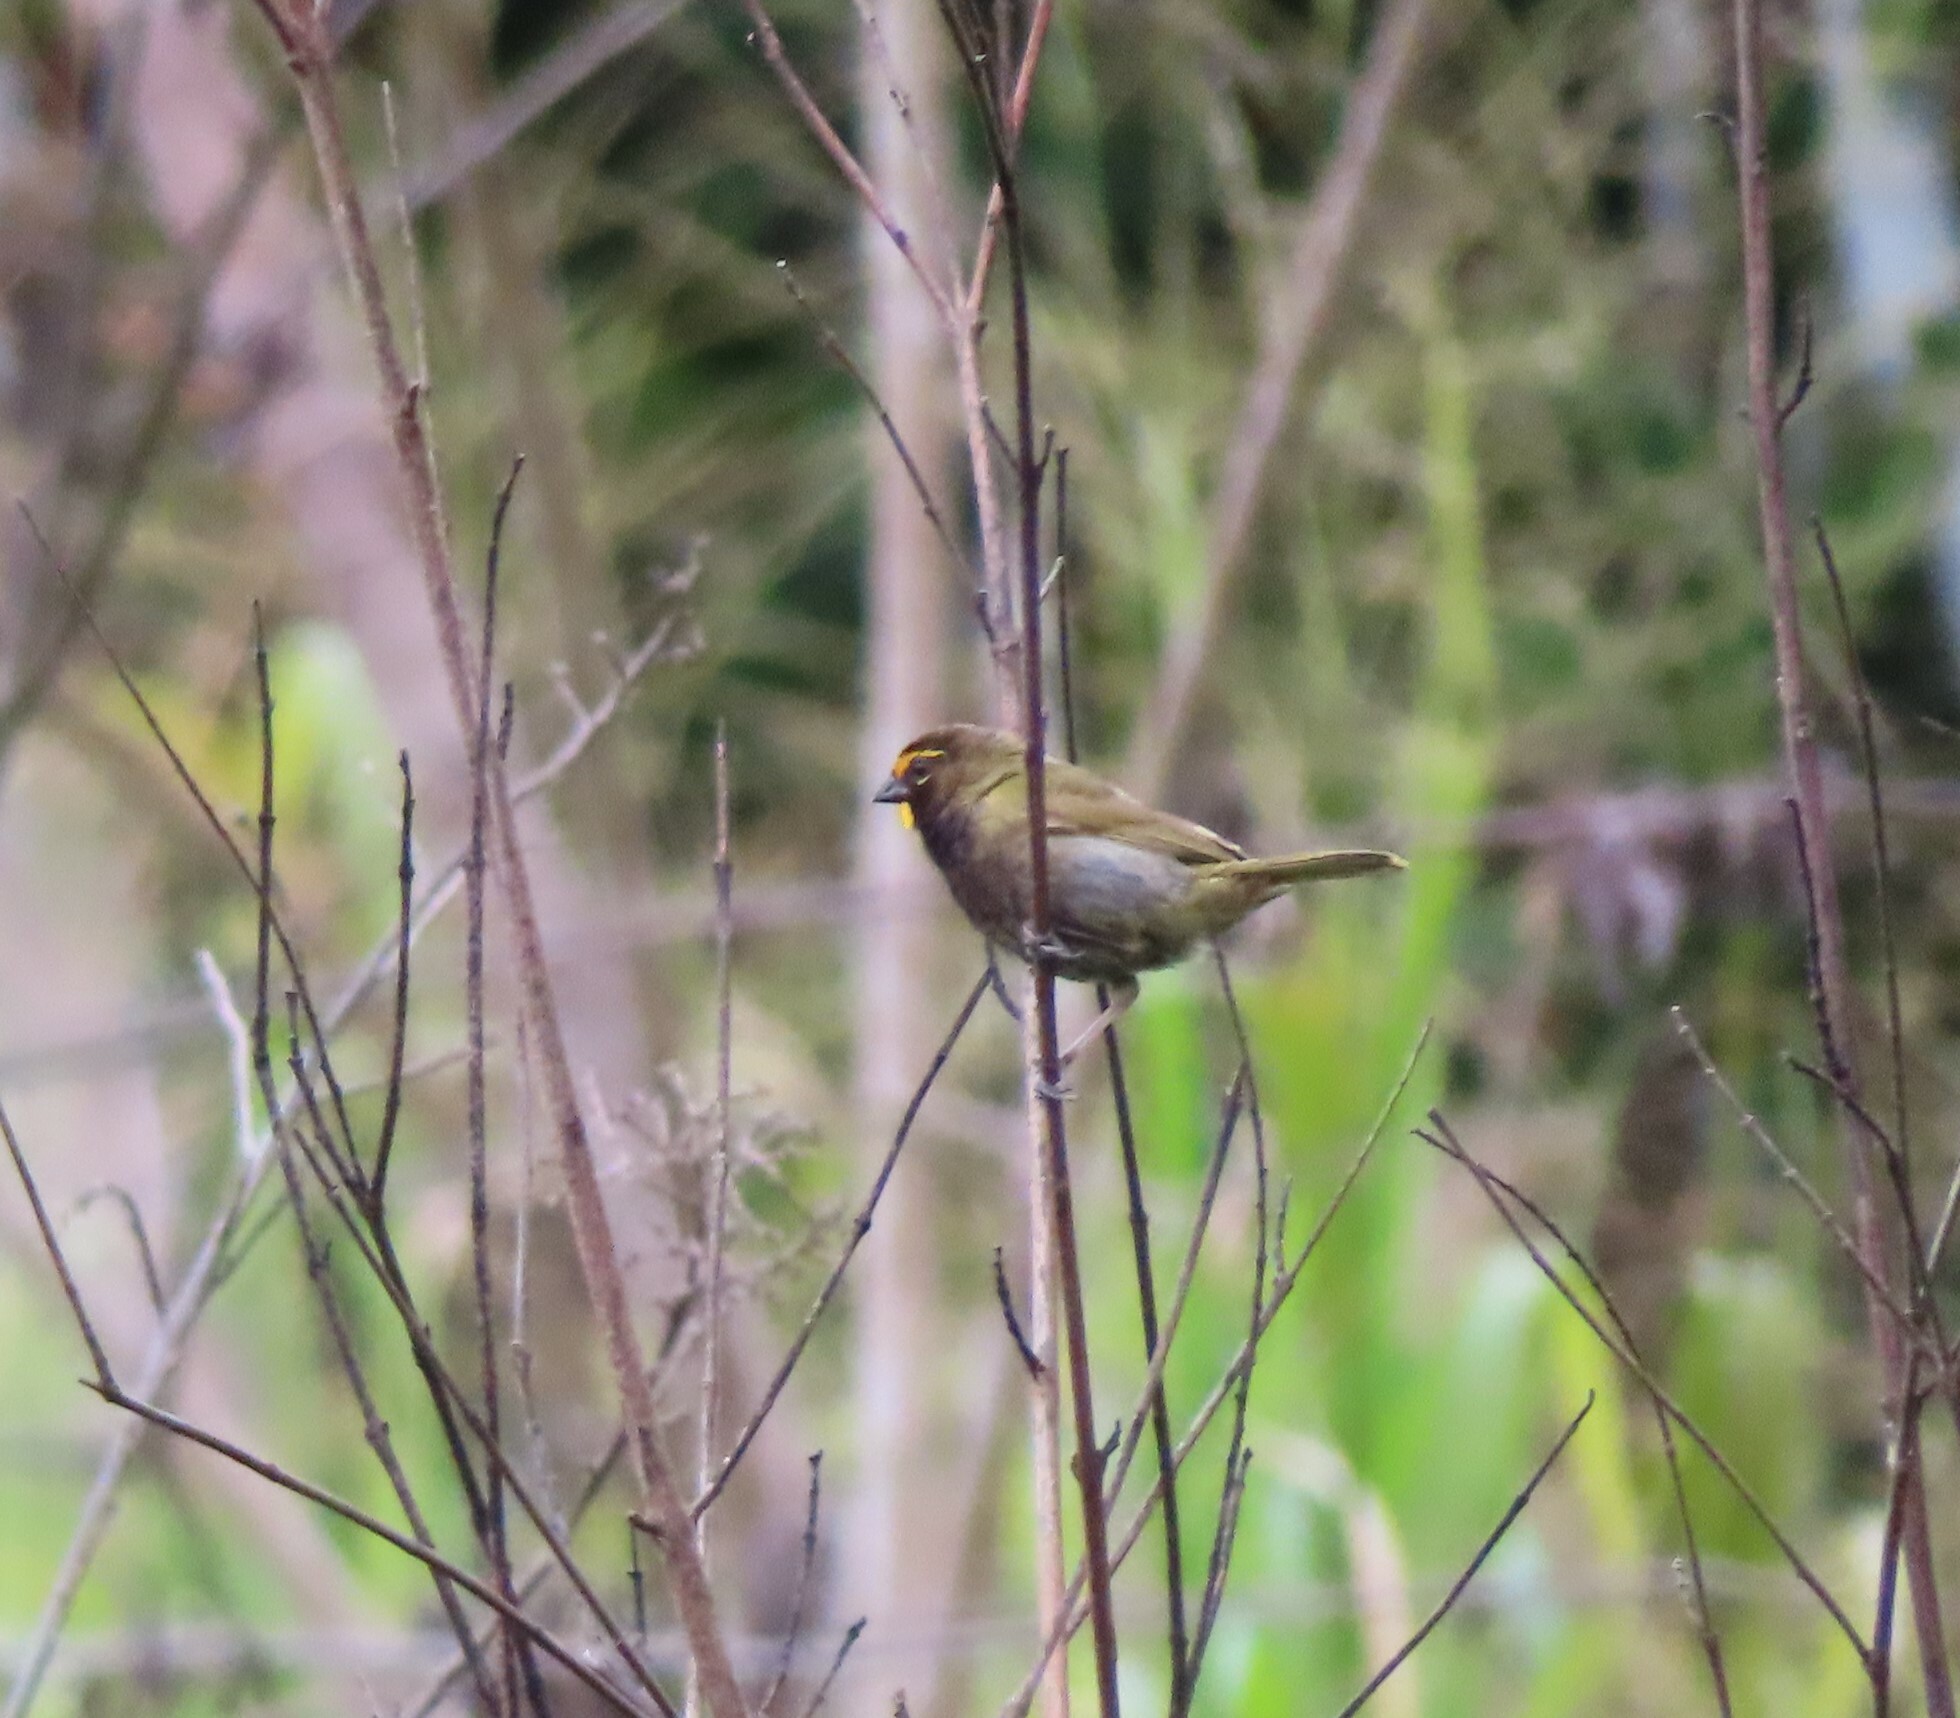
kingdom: Animalia
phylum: Chordata
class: Aves
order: Passeriformes
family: Thraupidae
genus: Tiaris
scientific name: Tiaris olivaceus
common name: Yellow-faced grassquit
